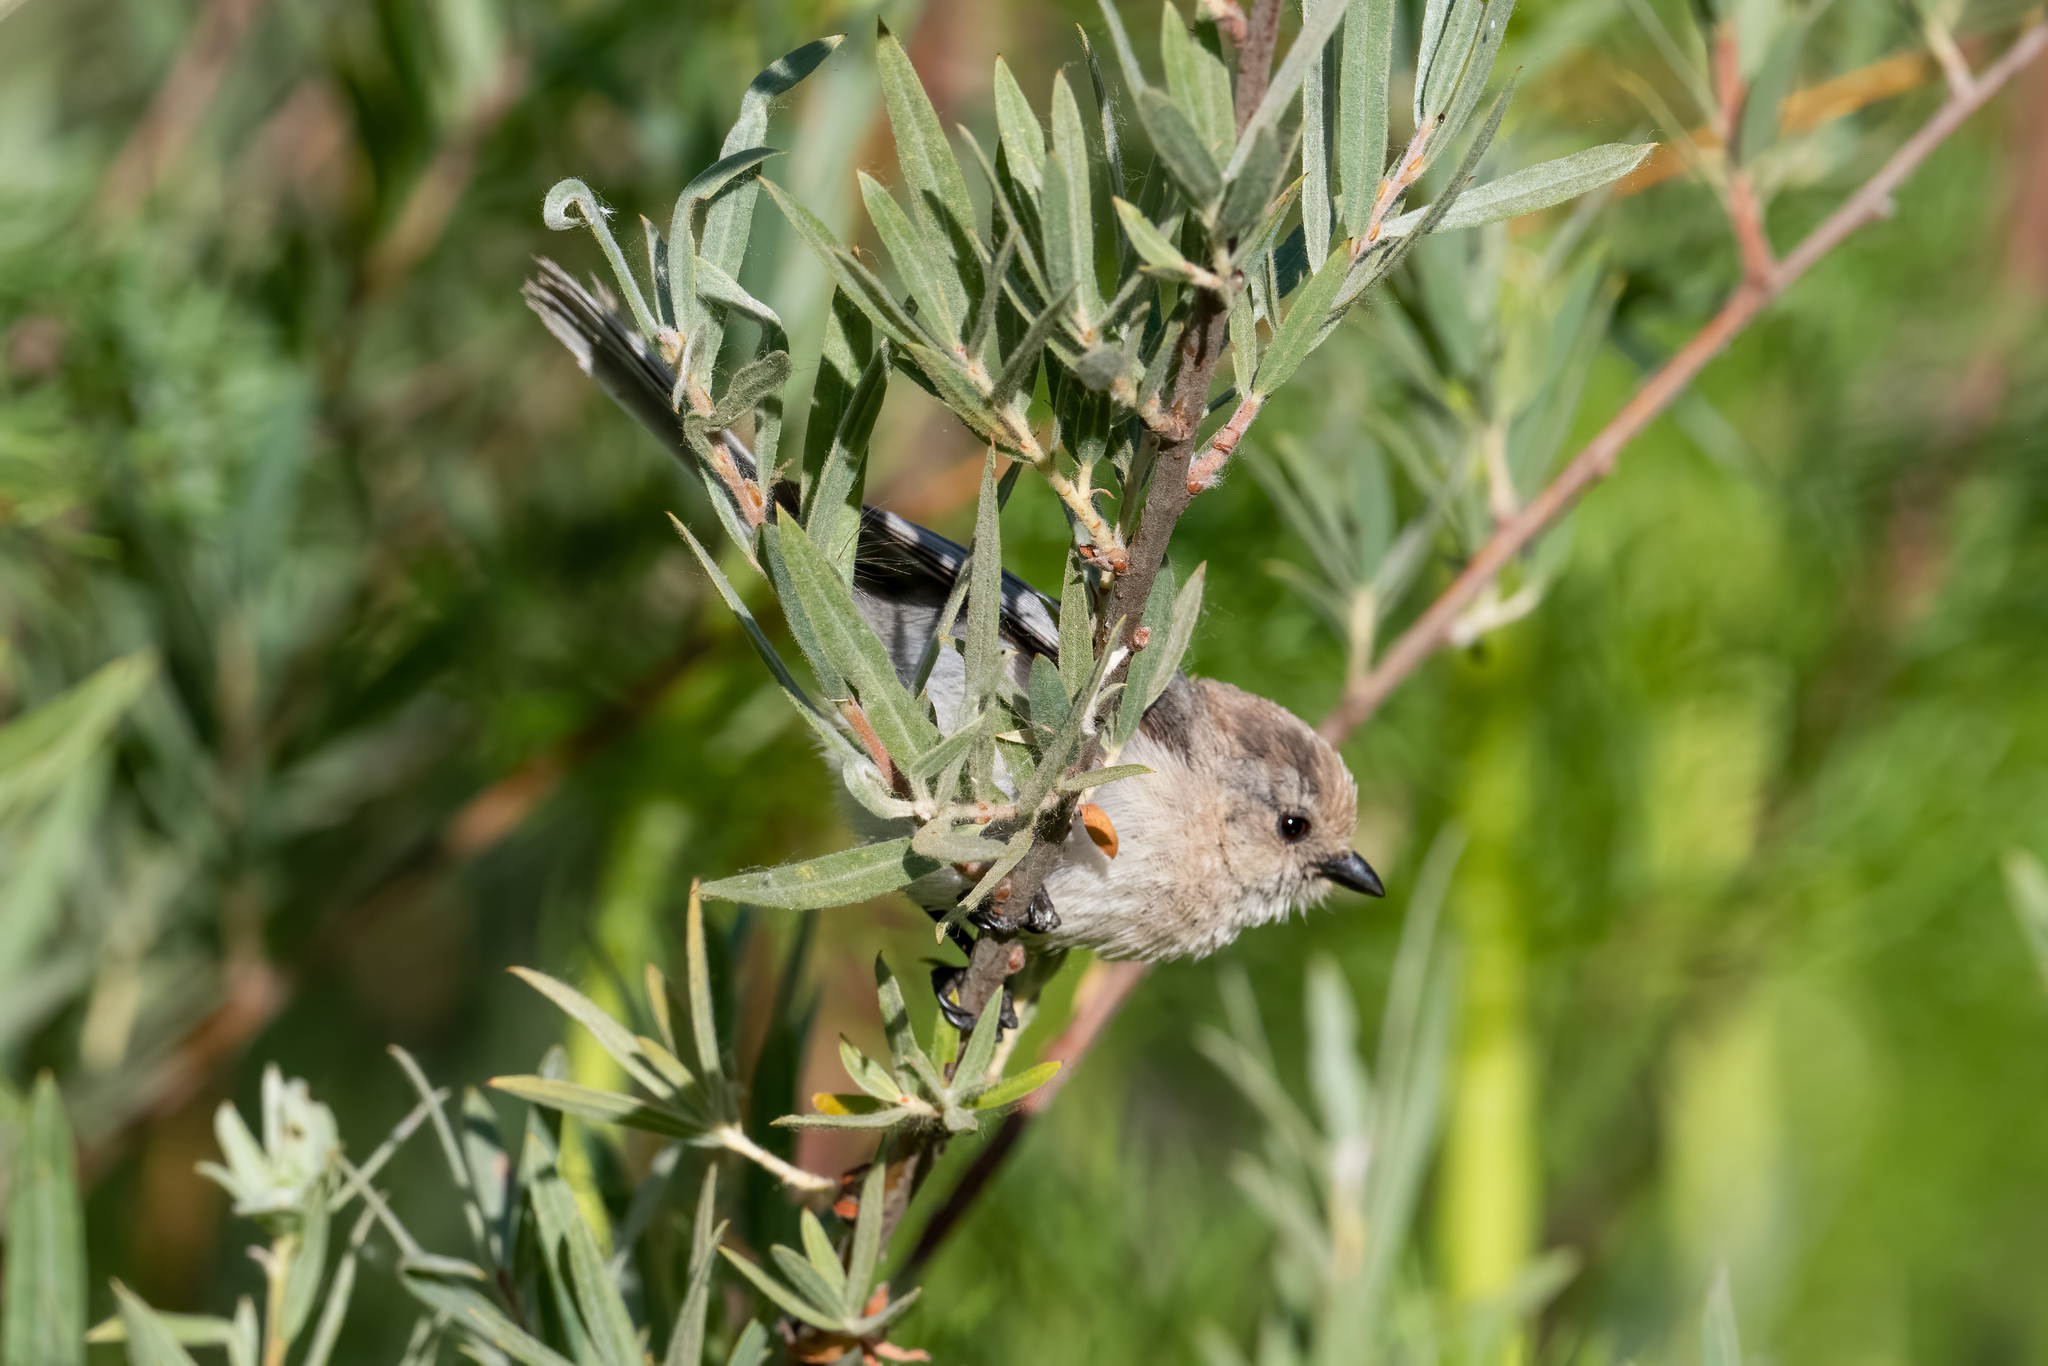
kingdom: Animalia
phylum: Chordata
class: Aves
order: Passeriformes
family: Aegithalidae
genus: Psaltriparus
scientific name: Psaltriparus minimus
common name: American bushtit
